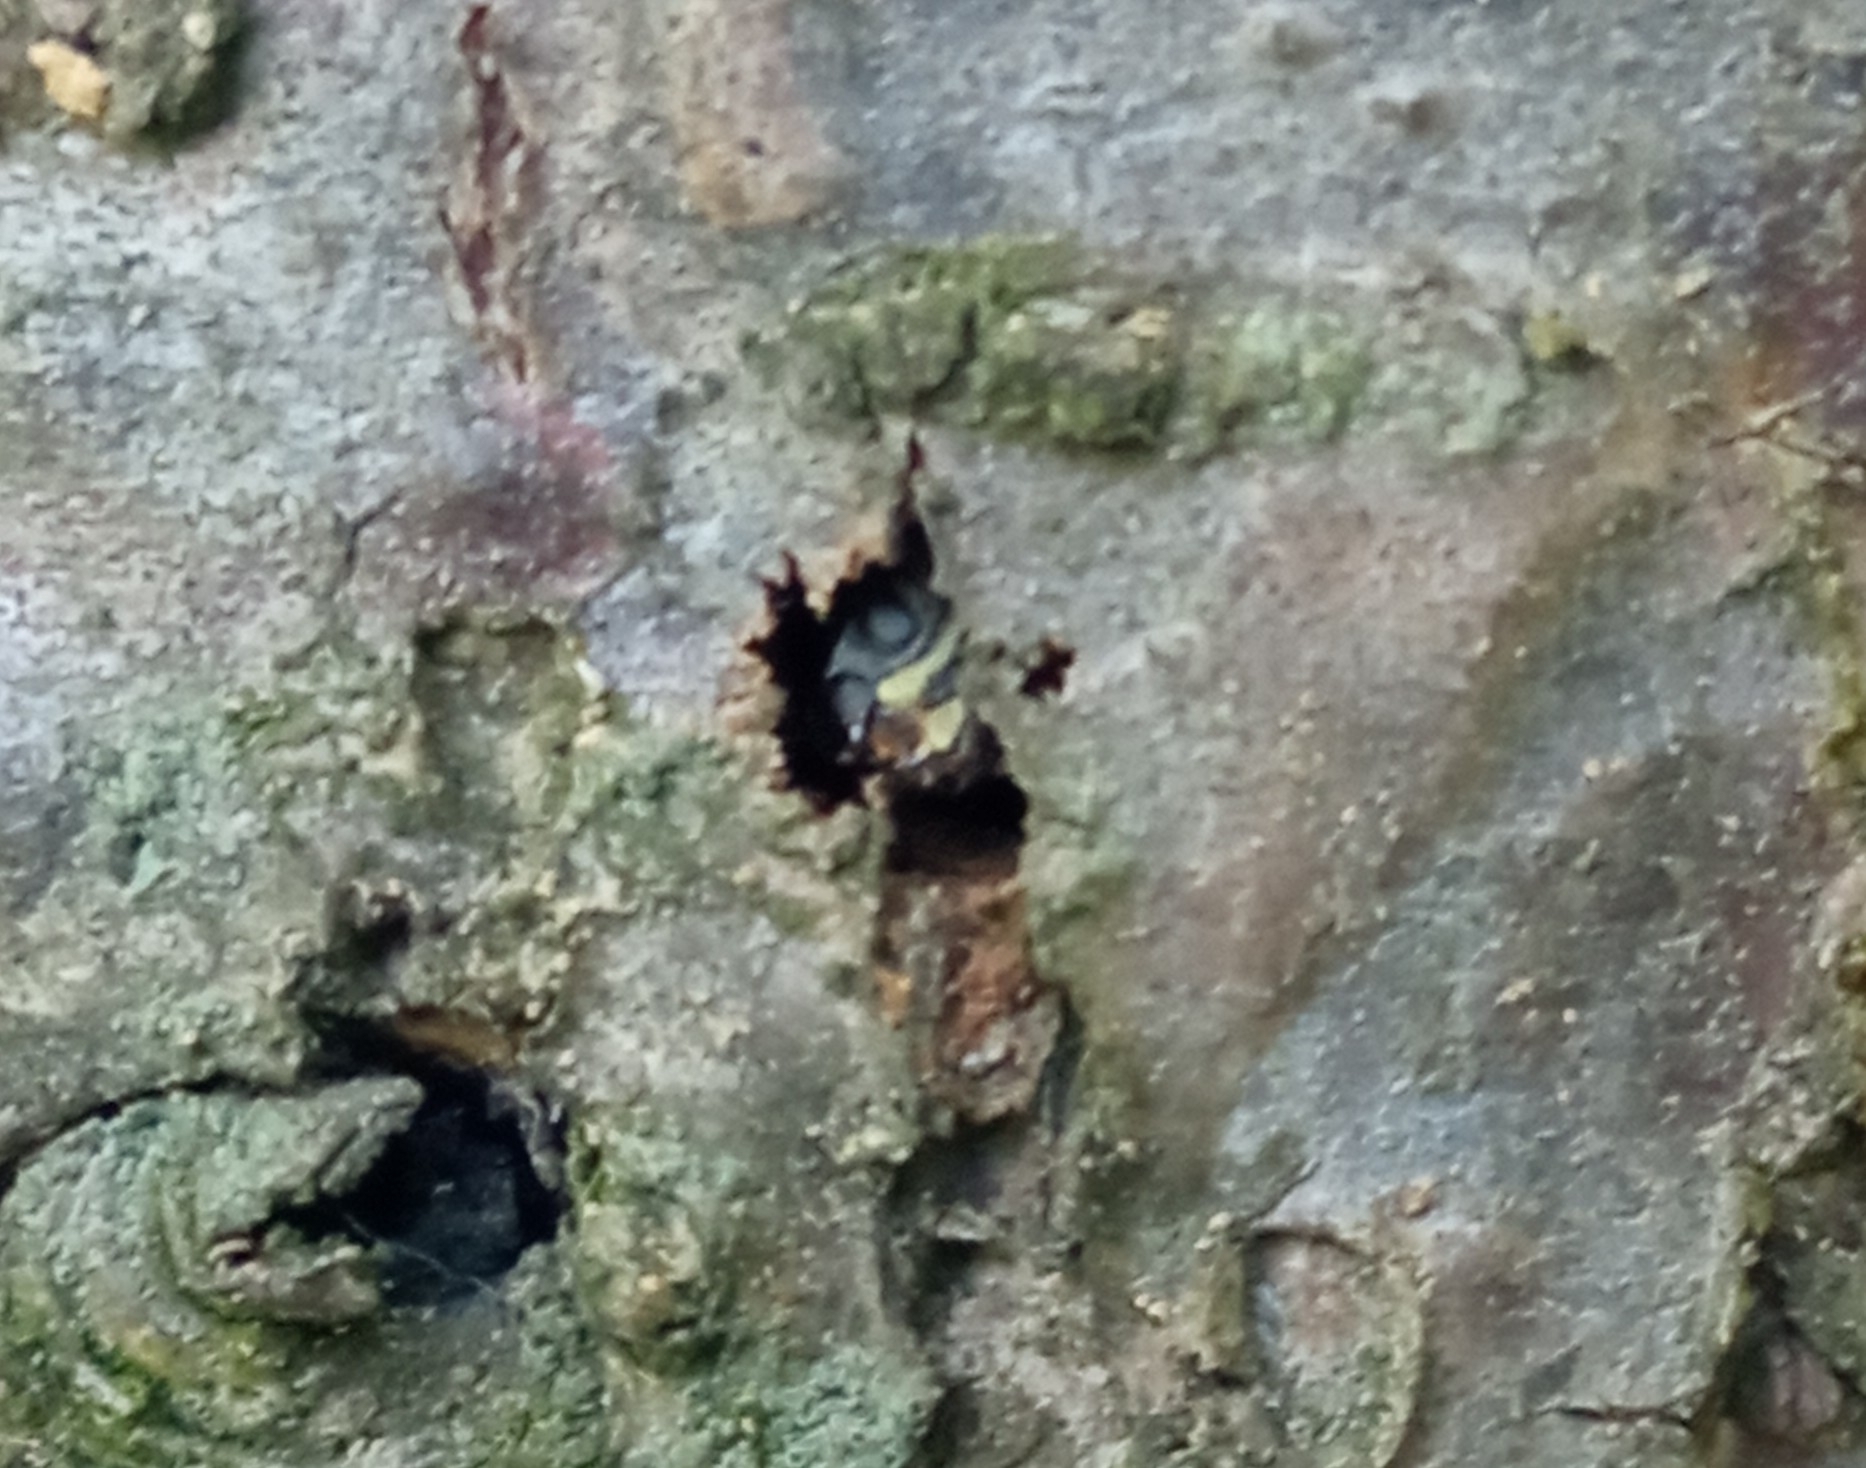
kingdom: Animalia
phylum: Arthropoda
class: Insecta
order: Coleoptera
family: Cerambycidae
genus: Xylotrechus
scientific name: Xylotrechus arvicola
